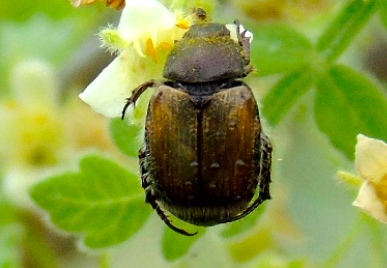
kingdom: Animalia
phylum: Arthropoda
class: Insecta
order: Coleoptera
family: Scarabaeidae
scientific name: Scarabaeidae
